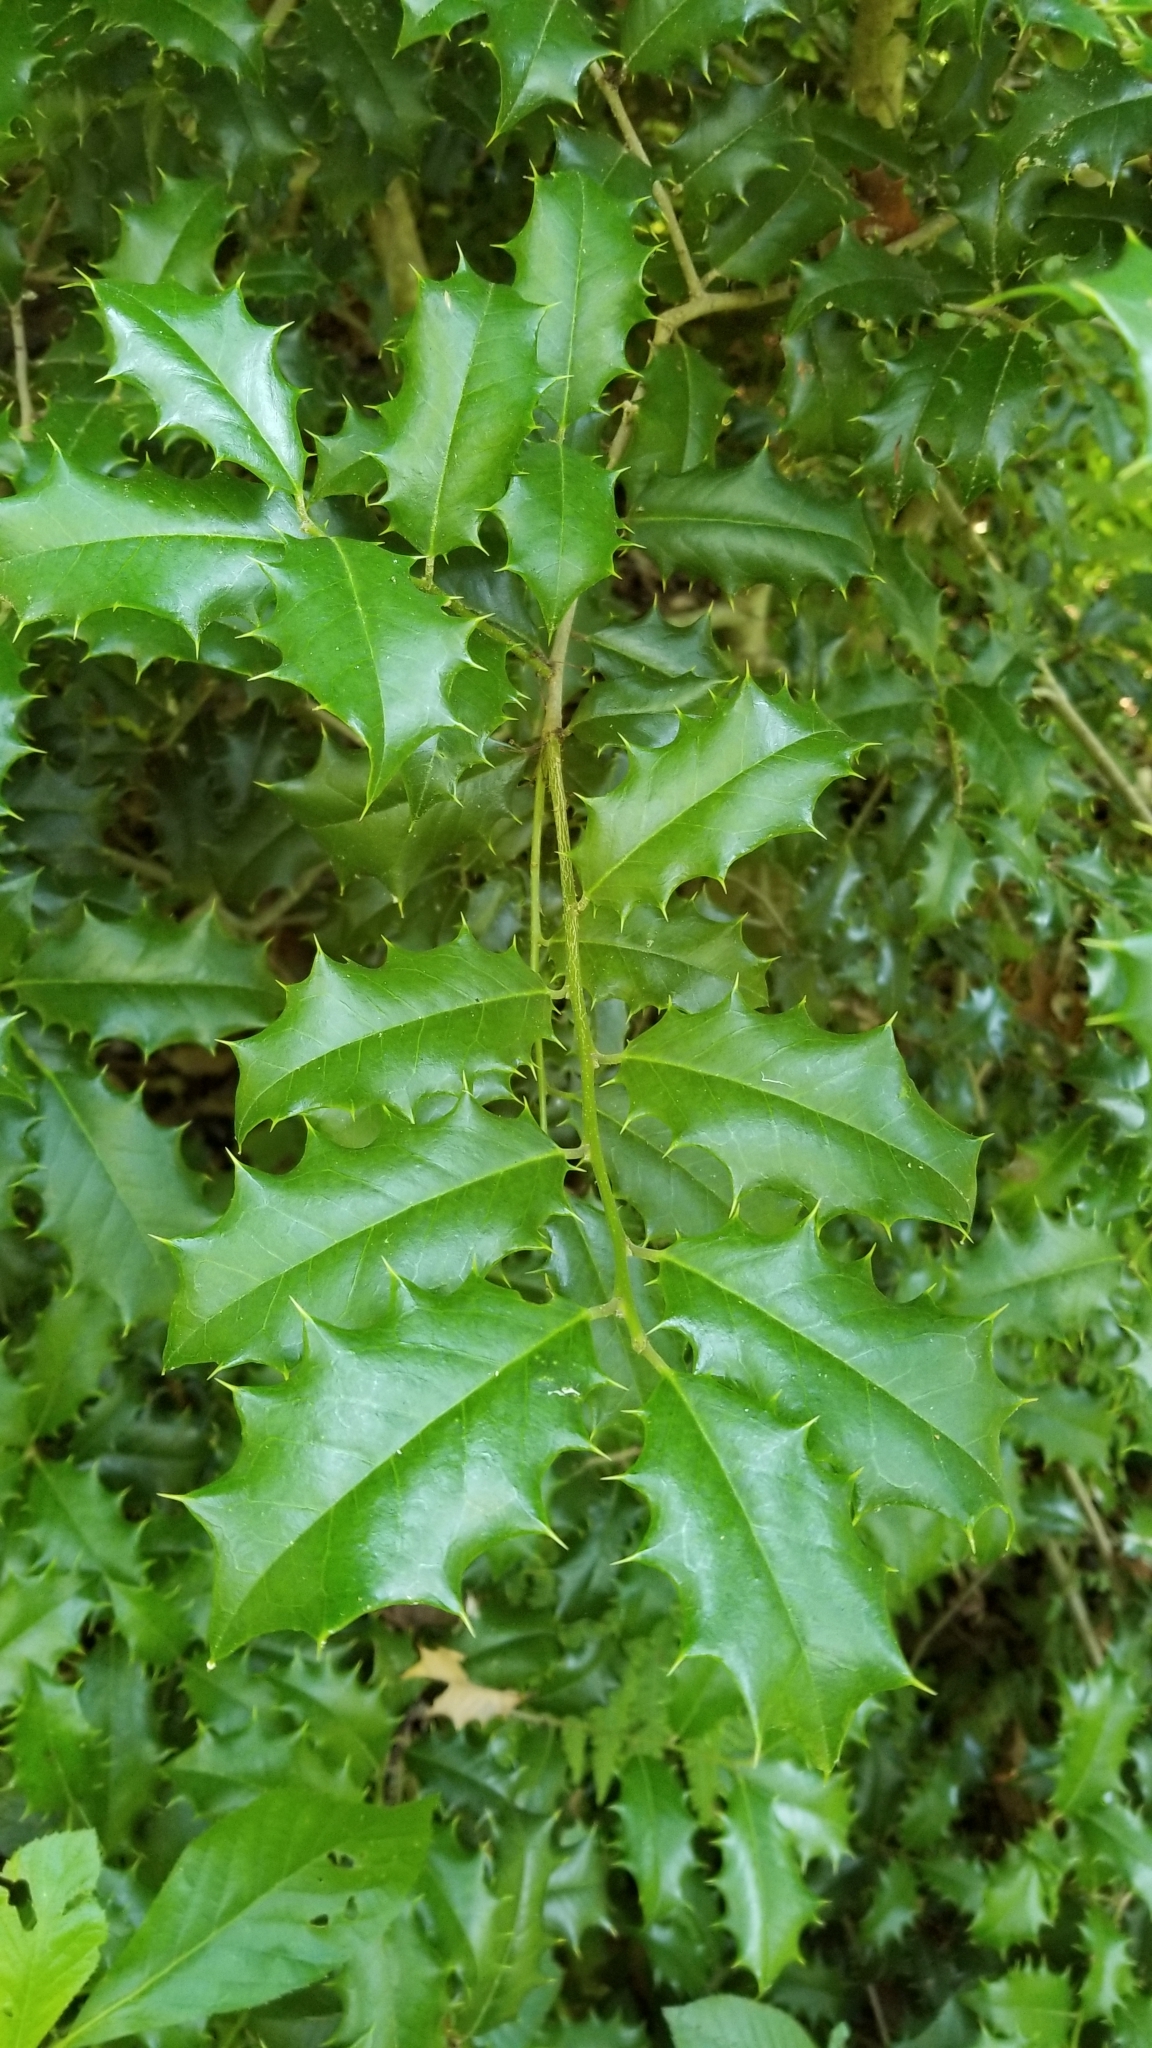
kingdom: Plantae
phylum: Tracheophyta
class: Magnoliopsida
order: Aquifoliales
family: Aquifoliaceae
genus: Ilex
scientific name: Ilex opaca
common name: American holly
